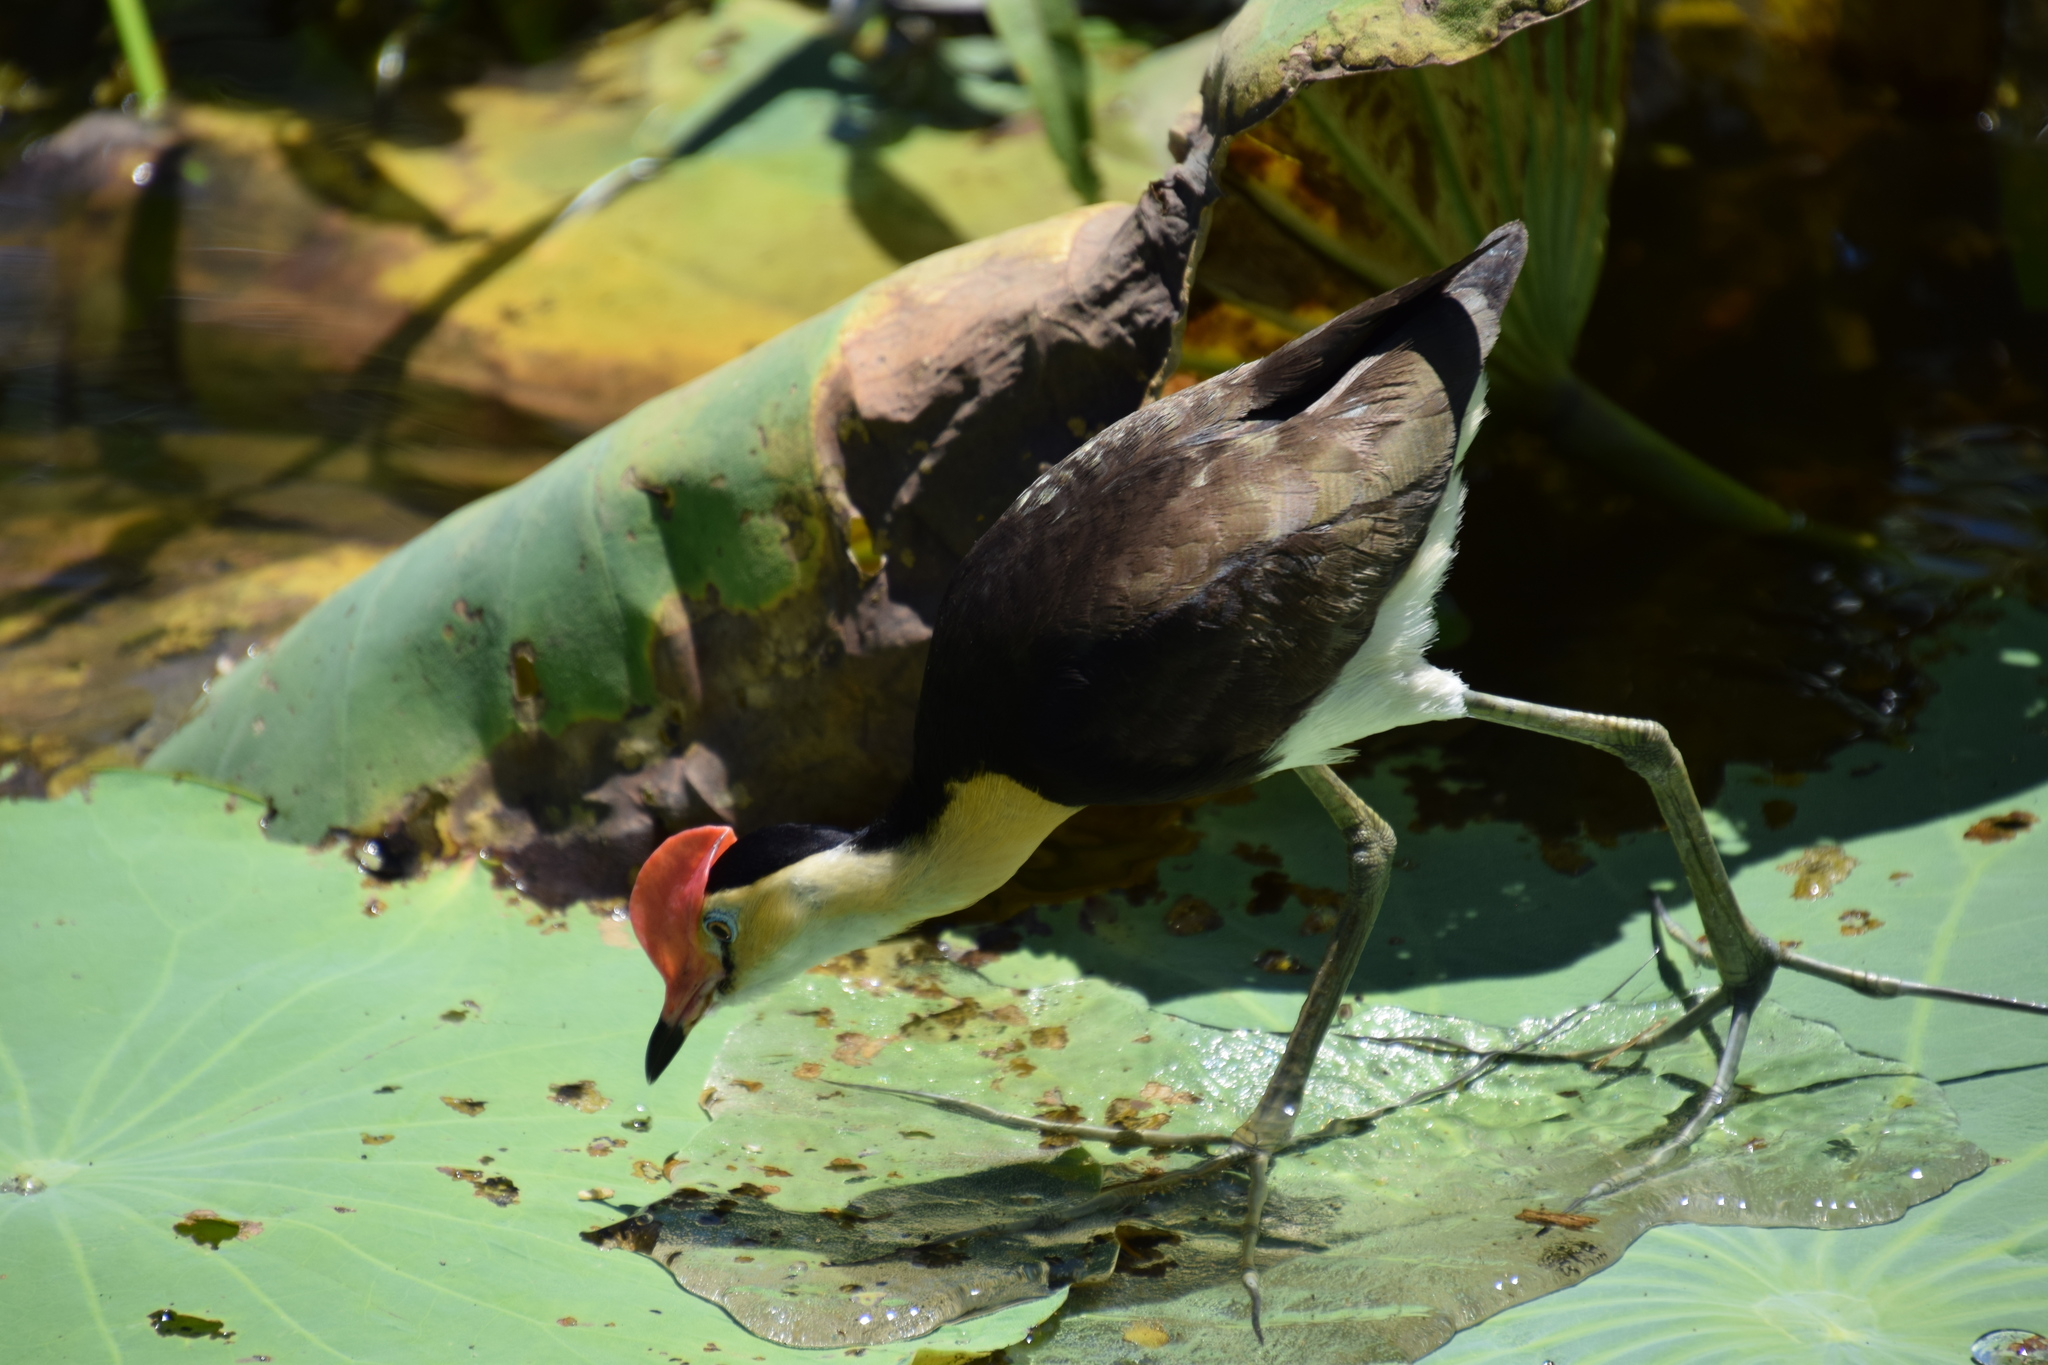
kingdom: Animalia
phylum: Chordata
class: Aves
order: Charadriiformes
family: Jacanidae
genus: Irediparra
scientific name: Irediparra gallinacea
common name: Comb-crested jacana
